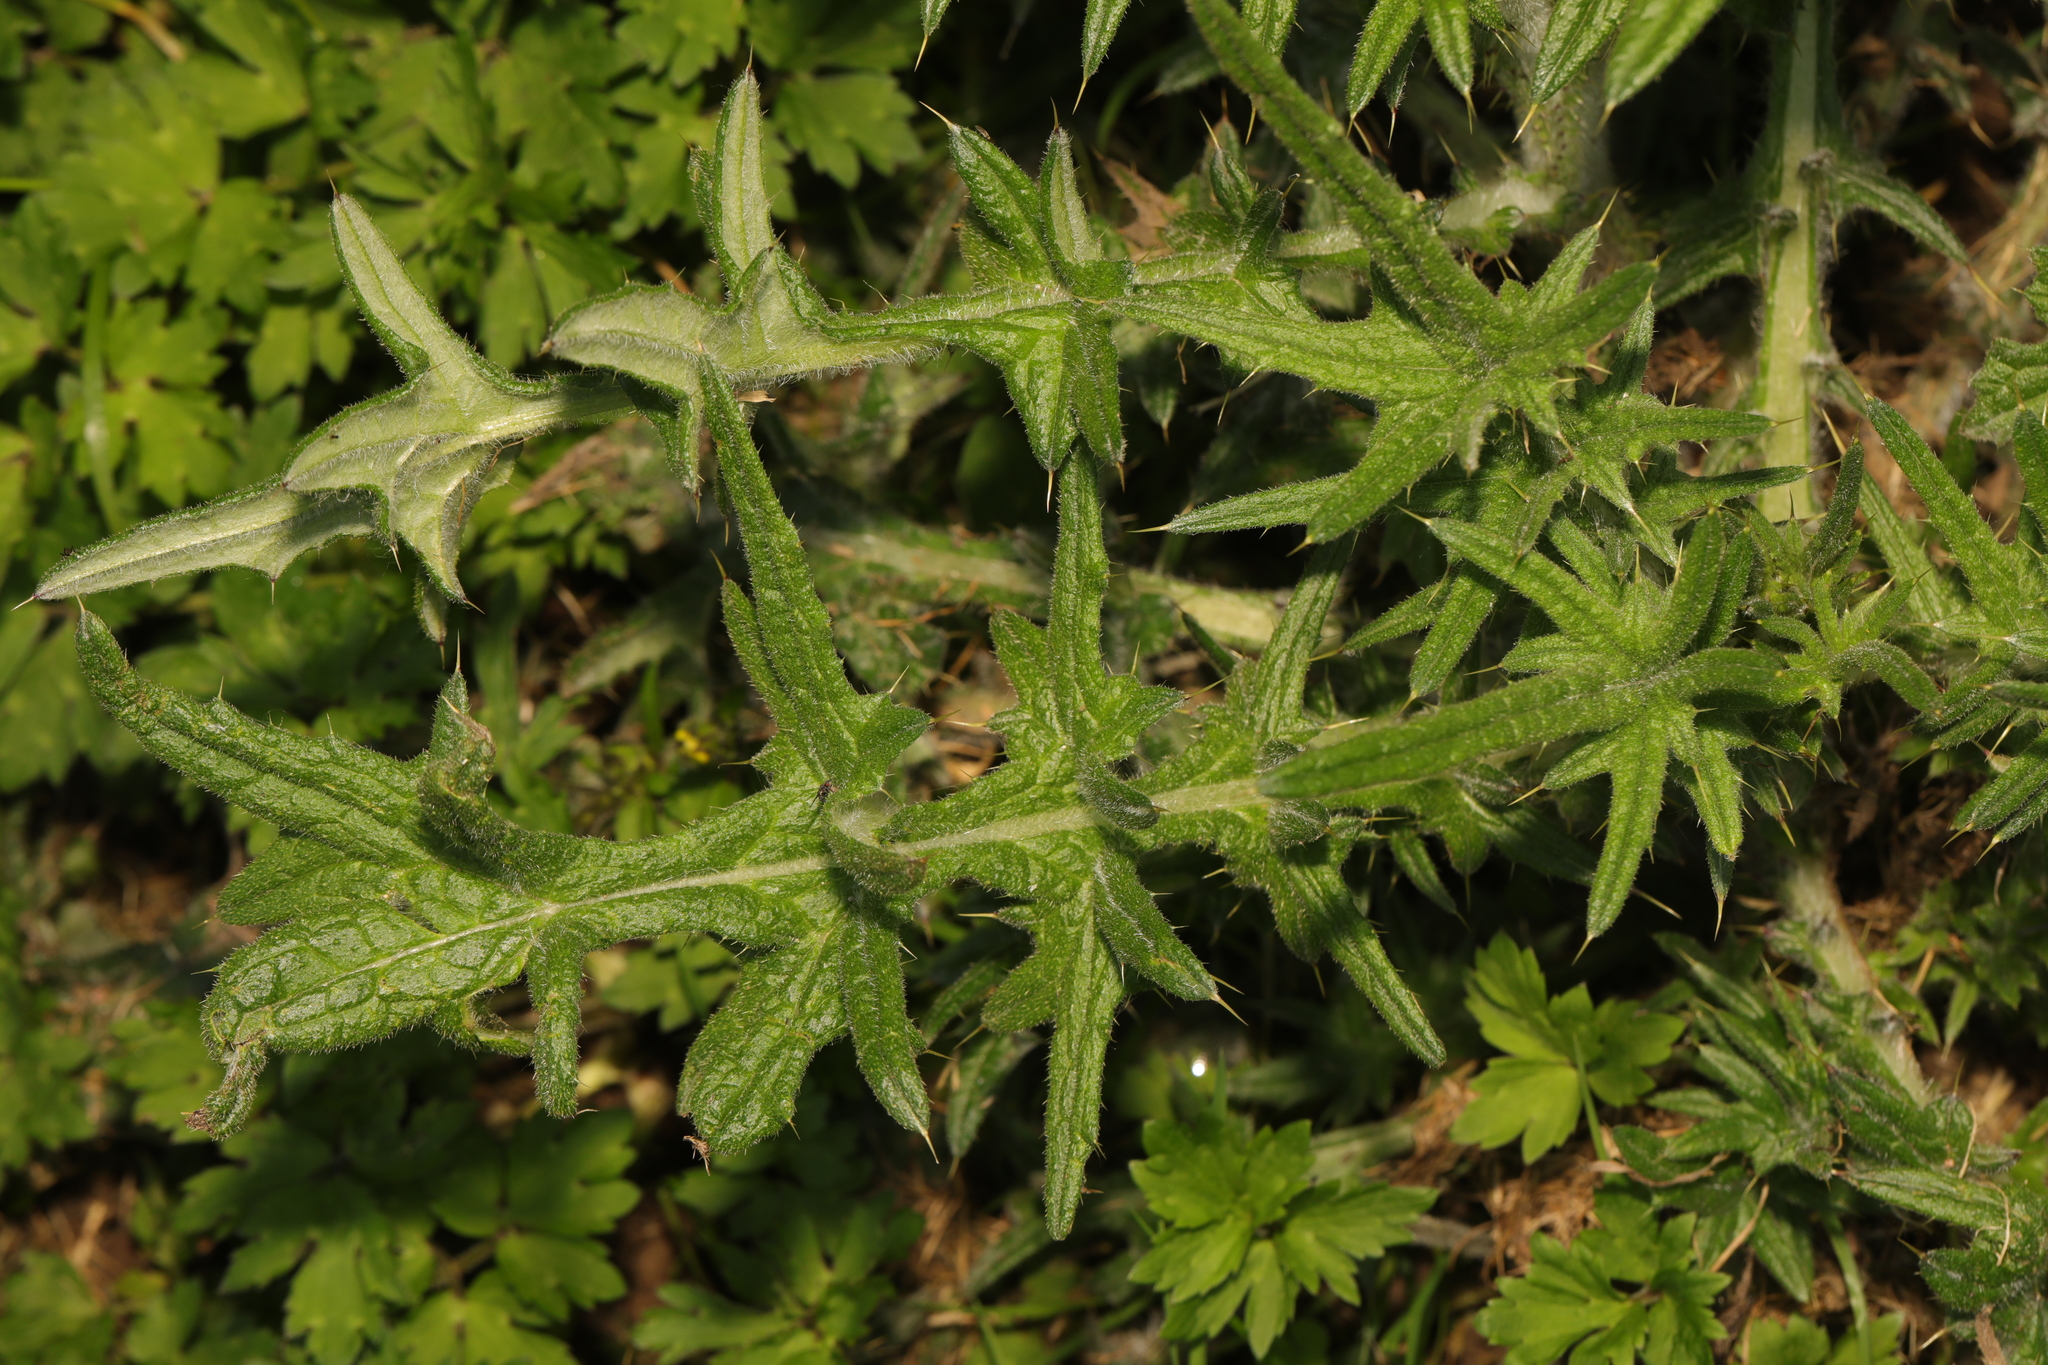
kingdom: Plantae
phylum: Tracheophyta
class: Magnoliopsida
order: Asterales
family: Asteraceae
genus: Cirsium
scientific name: Cirsium vulgare
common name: Bull thistle
